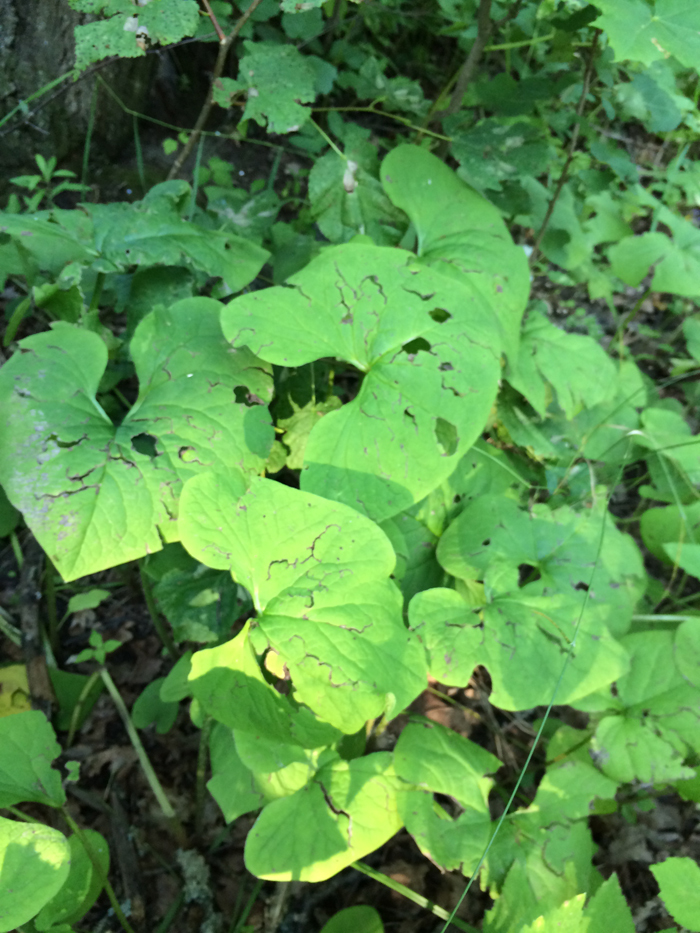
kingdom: Plantae
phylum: Tracheophyta
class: Magnoliopsida
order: Piperales
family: Aristolochiaceae
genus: Aristolochia
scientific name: Aristolochia clematitis
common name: Birthwort
